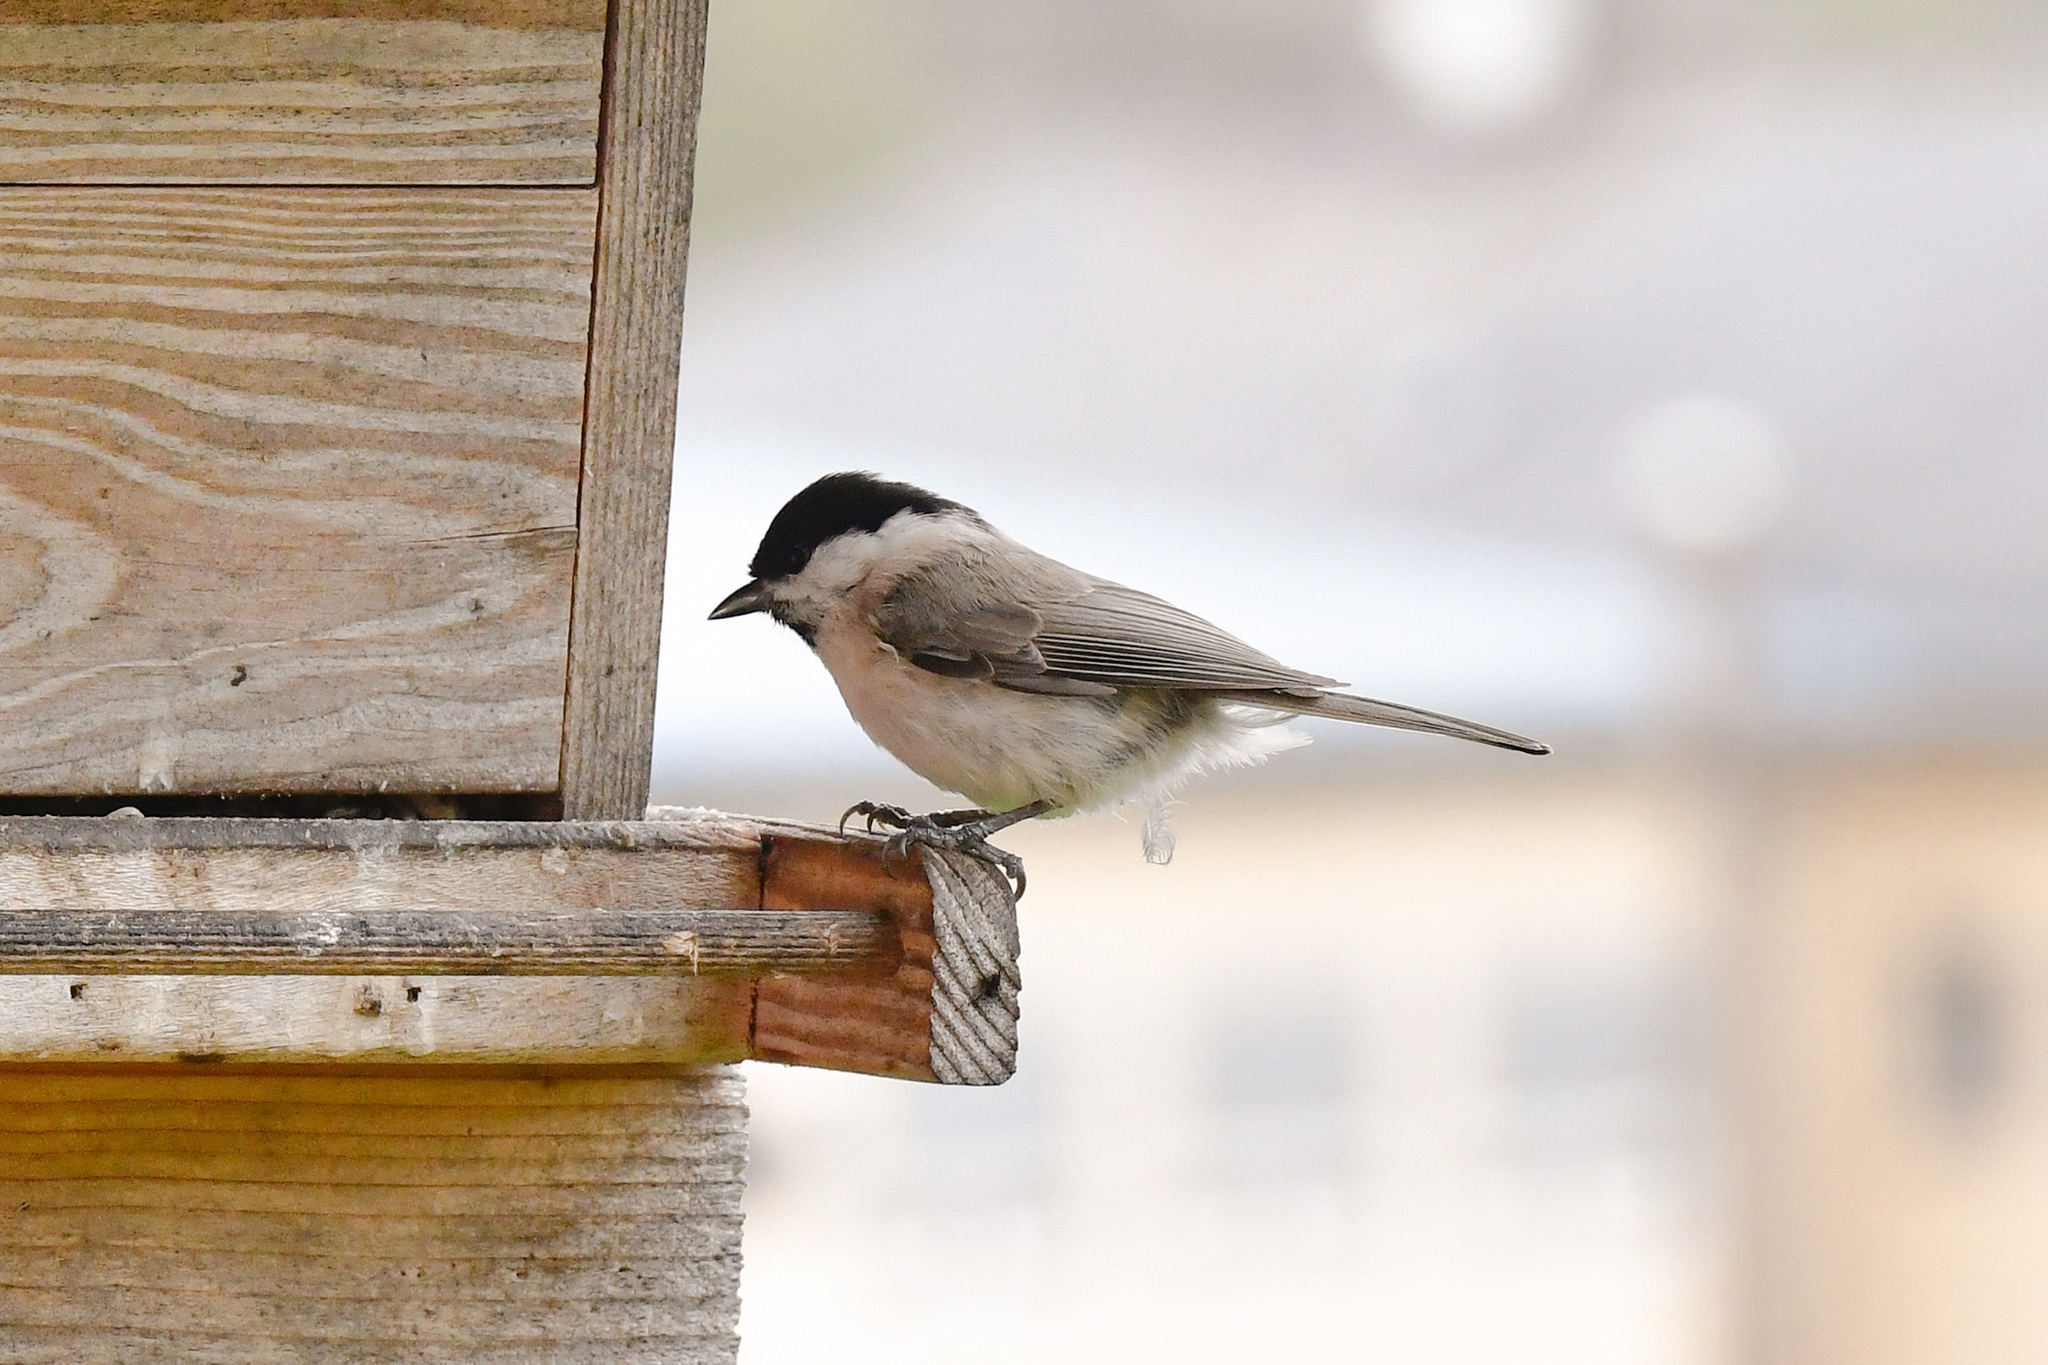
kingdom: Animalia
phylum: Chordata
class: Aves
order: Passeriformes
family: Paridae
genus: Poecile
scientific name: Poecile palustris
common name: Marsh tit
